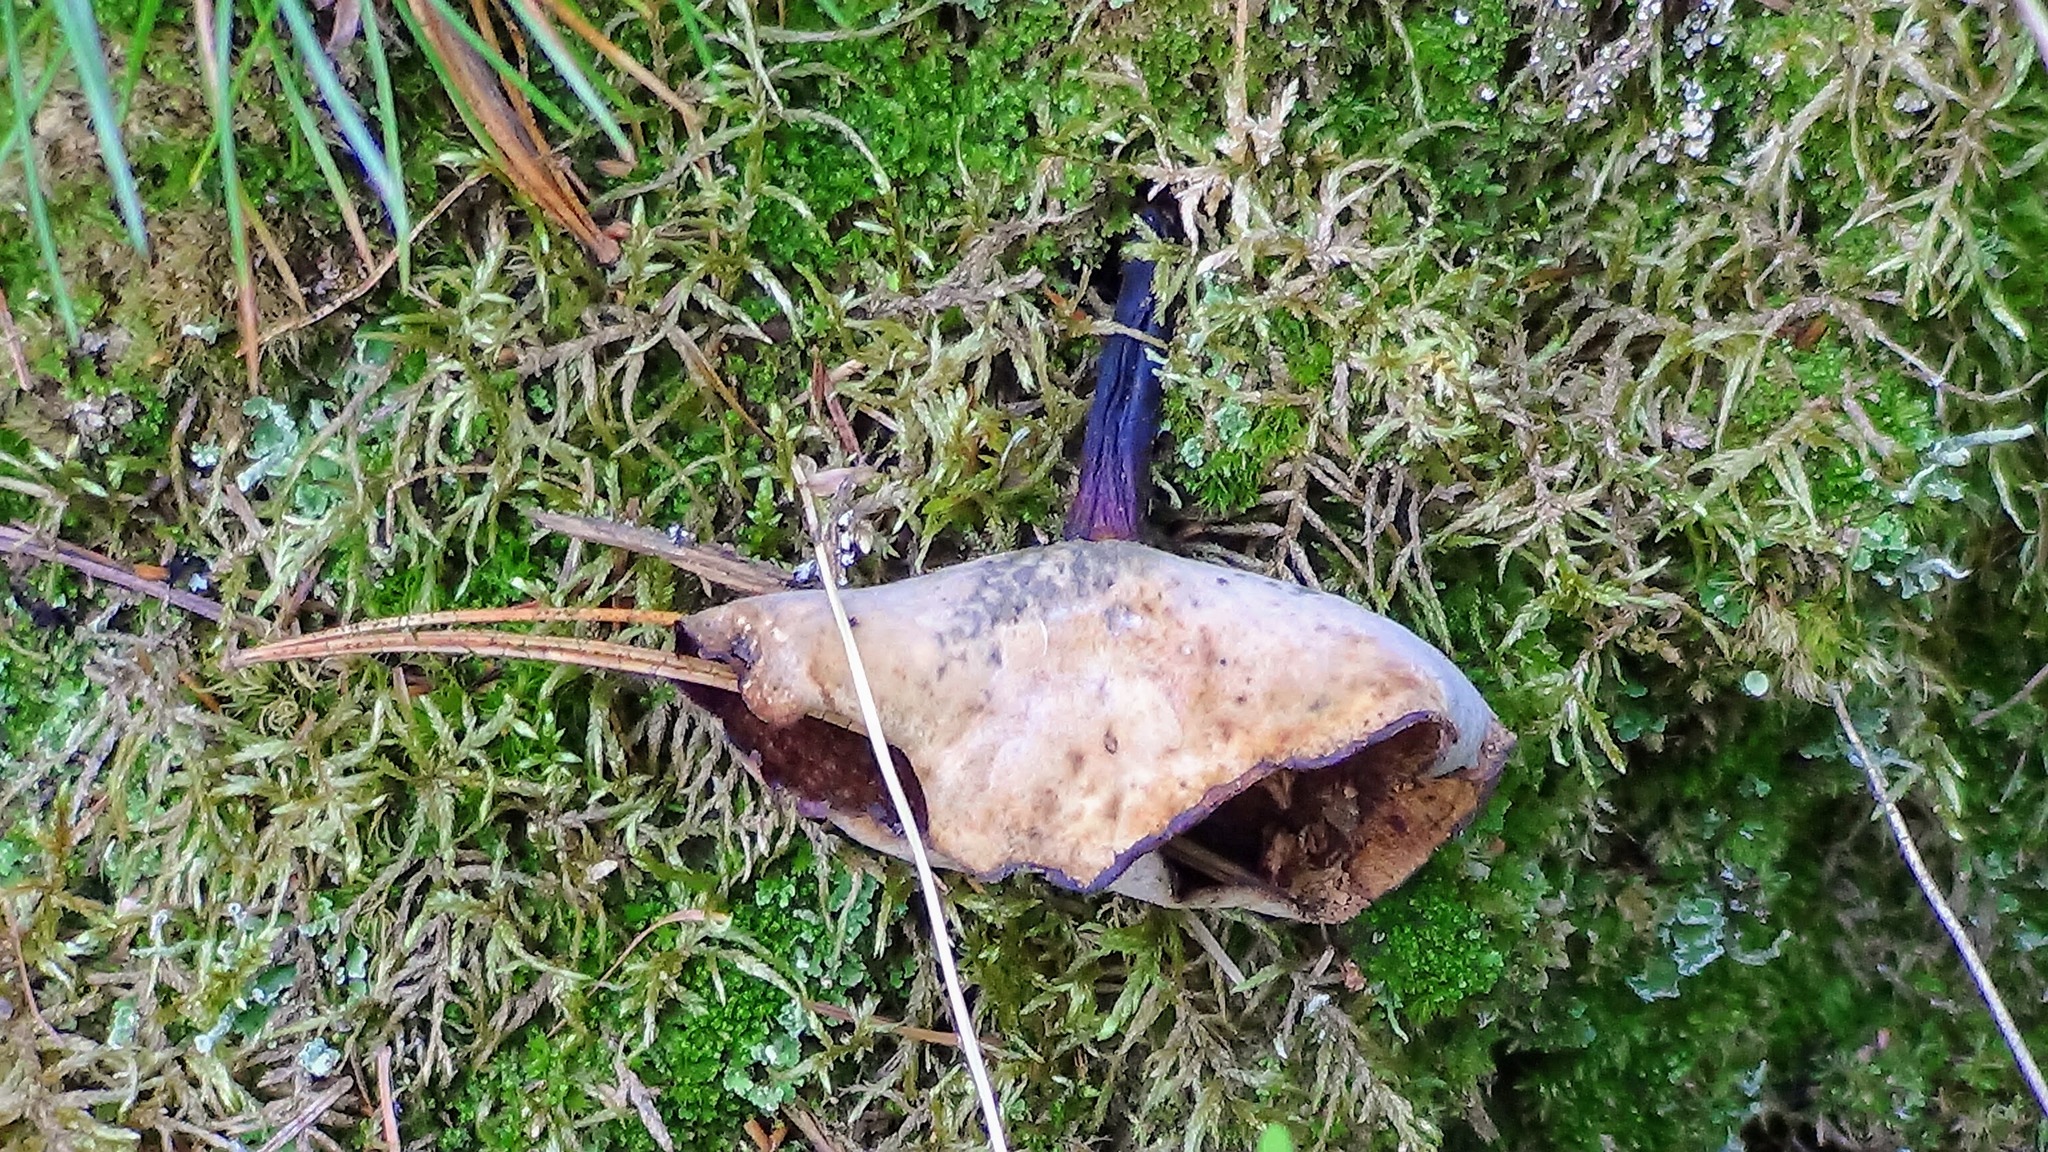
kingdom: Fungi
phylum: Basidiomycota
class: Agaricomycetes
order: Polyporales
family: Polyporaceae
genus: Picipes
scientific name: Picipes melanopus
